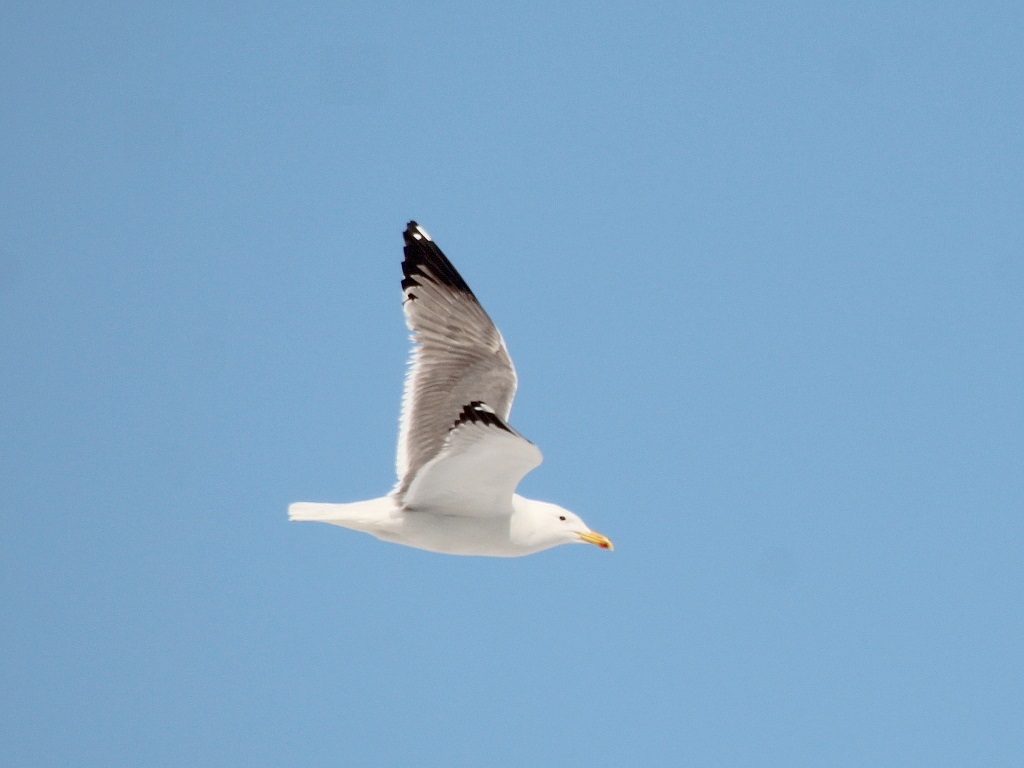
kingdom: Animalia
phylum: Chordata
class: Aves
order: Charadriiformes
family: Laridae
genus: Larus
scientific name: Larus fuscus
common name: Lesser black-backed gull
